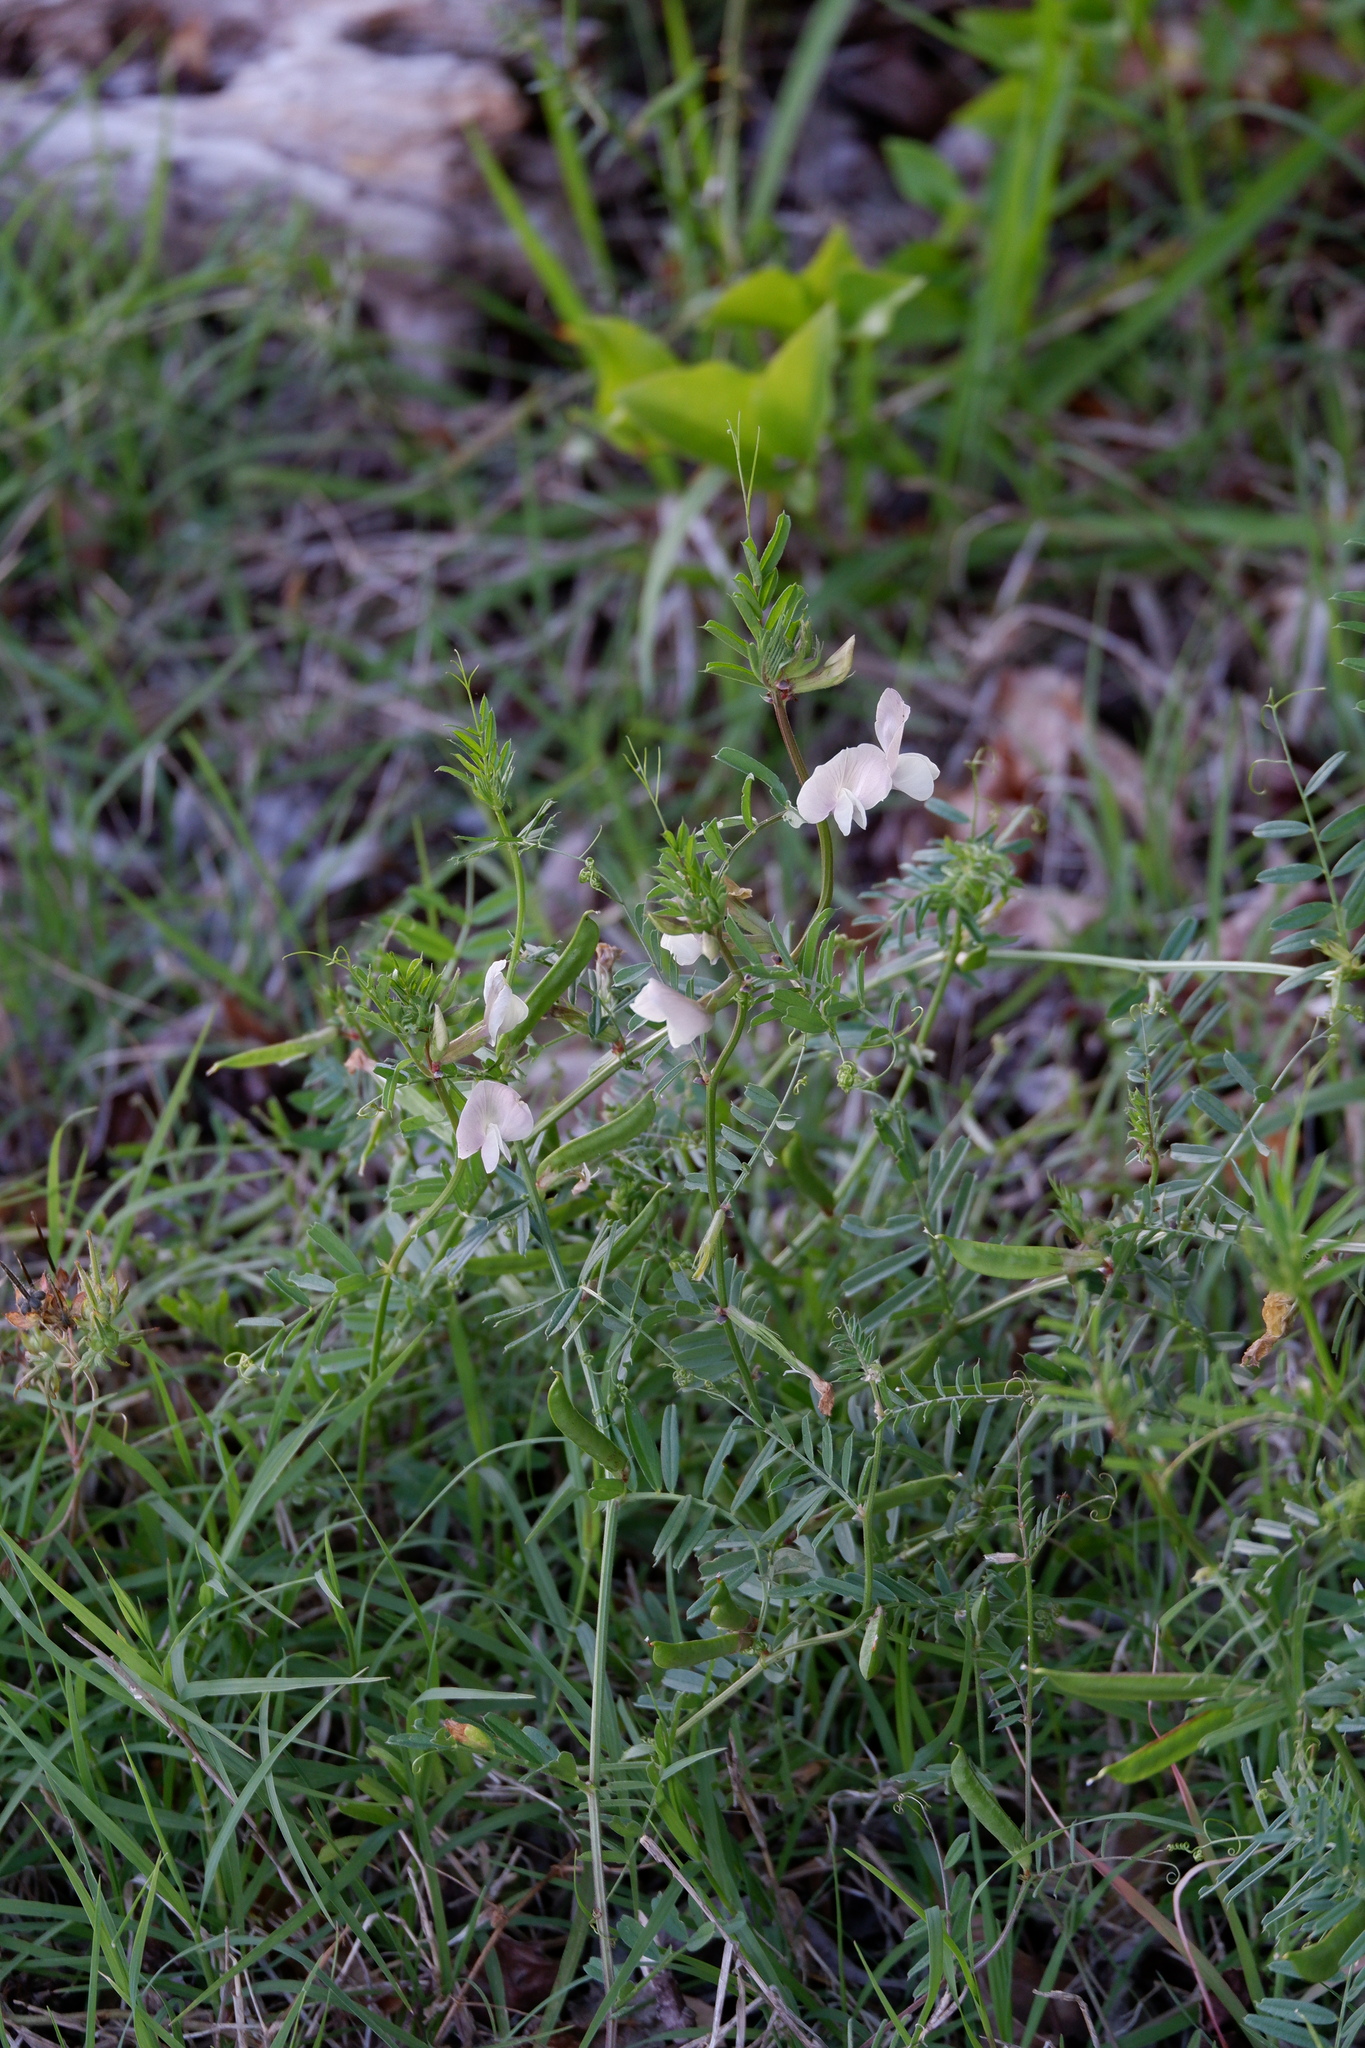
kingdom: Plantae
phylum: Tracheophyta
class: Magnoliopsida
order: Fabales
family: Fabaceae
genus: Vicia
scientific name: Vicia grandiflora
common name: Large yellow vetch
